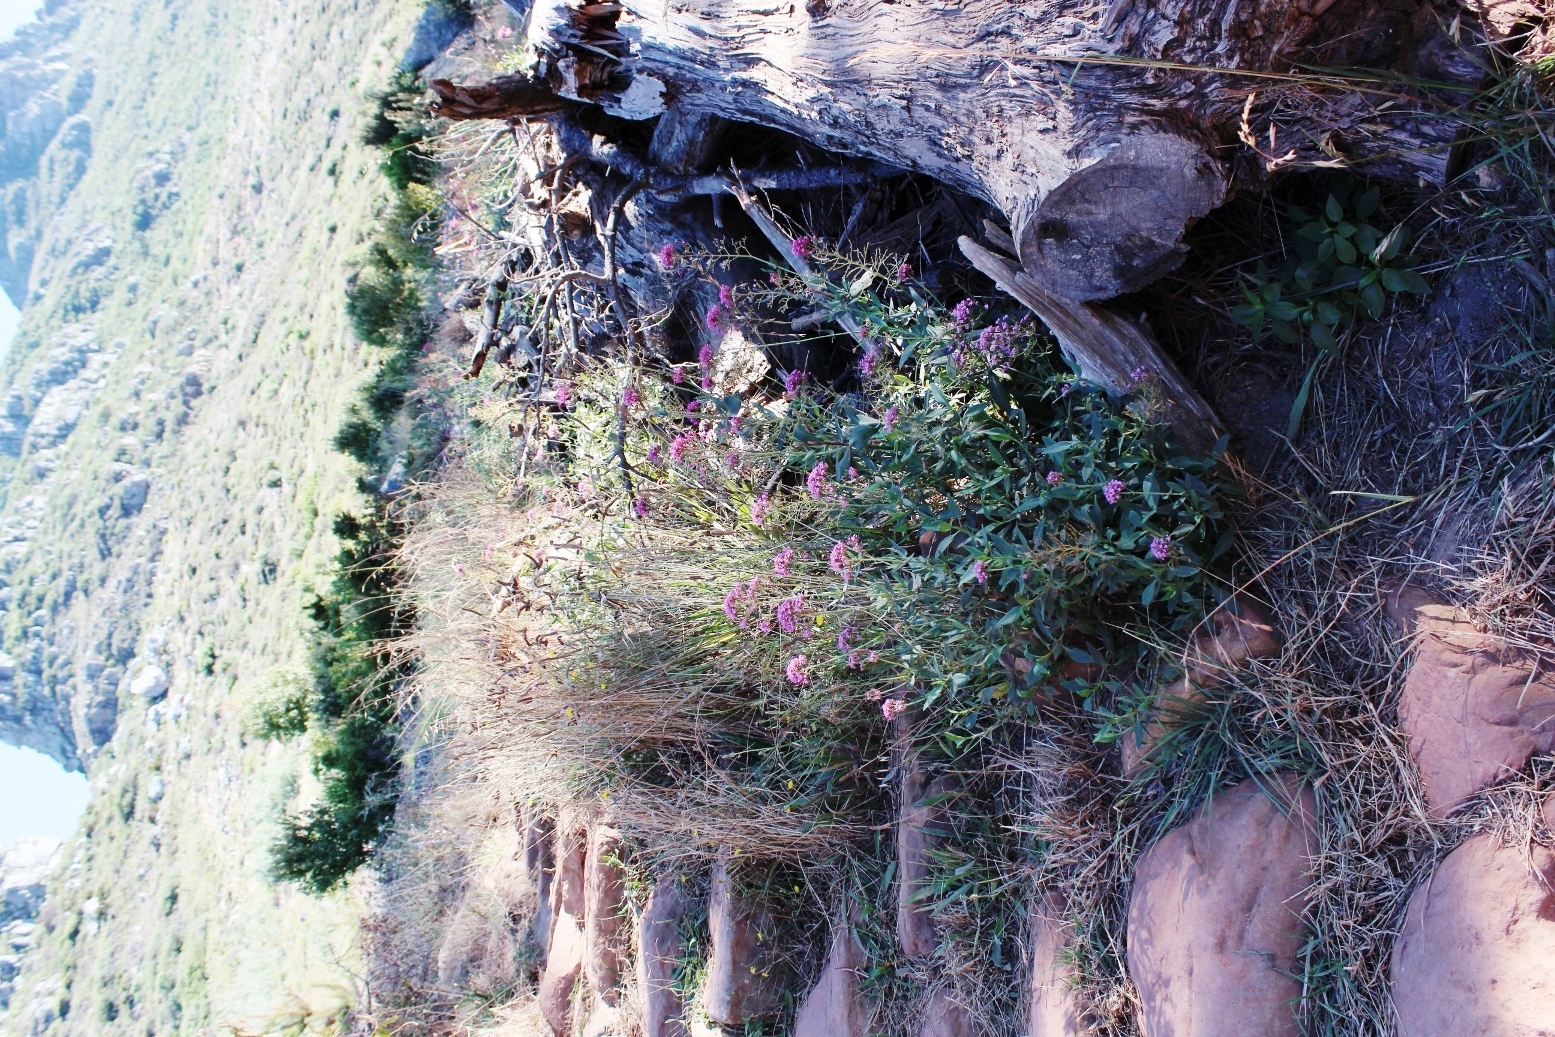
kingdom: Plantae
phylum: Tracheophyta
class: Magnoliopsida
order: Dipsacales
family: Caprifoliaceae
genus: Centranthus
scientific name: Centranthus ruber
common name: Red valerian
